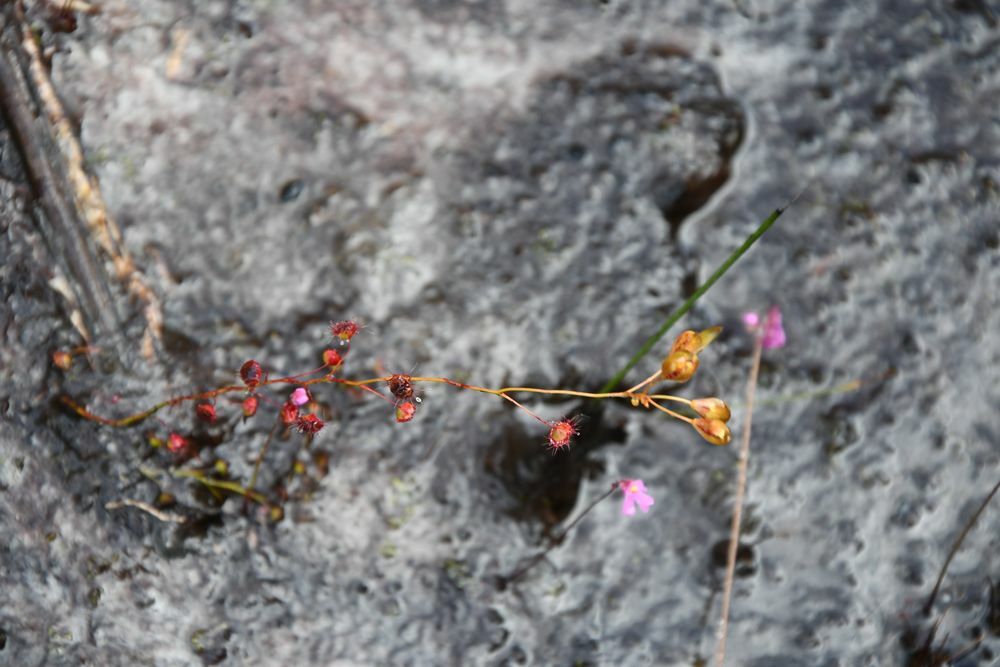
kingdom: Plantae
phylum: Tracheophyta
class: Magnoliopsida
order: Caryophyllales
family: Droseraceae
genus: Drosera
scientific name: Drosera microphylla
